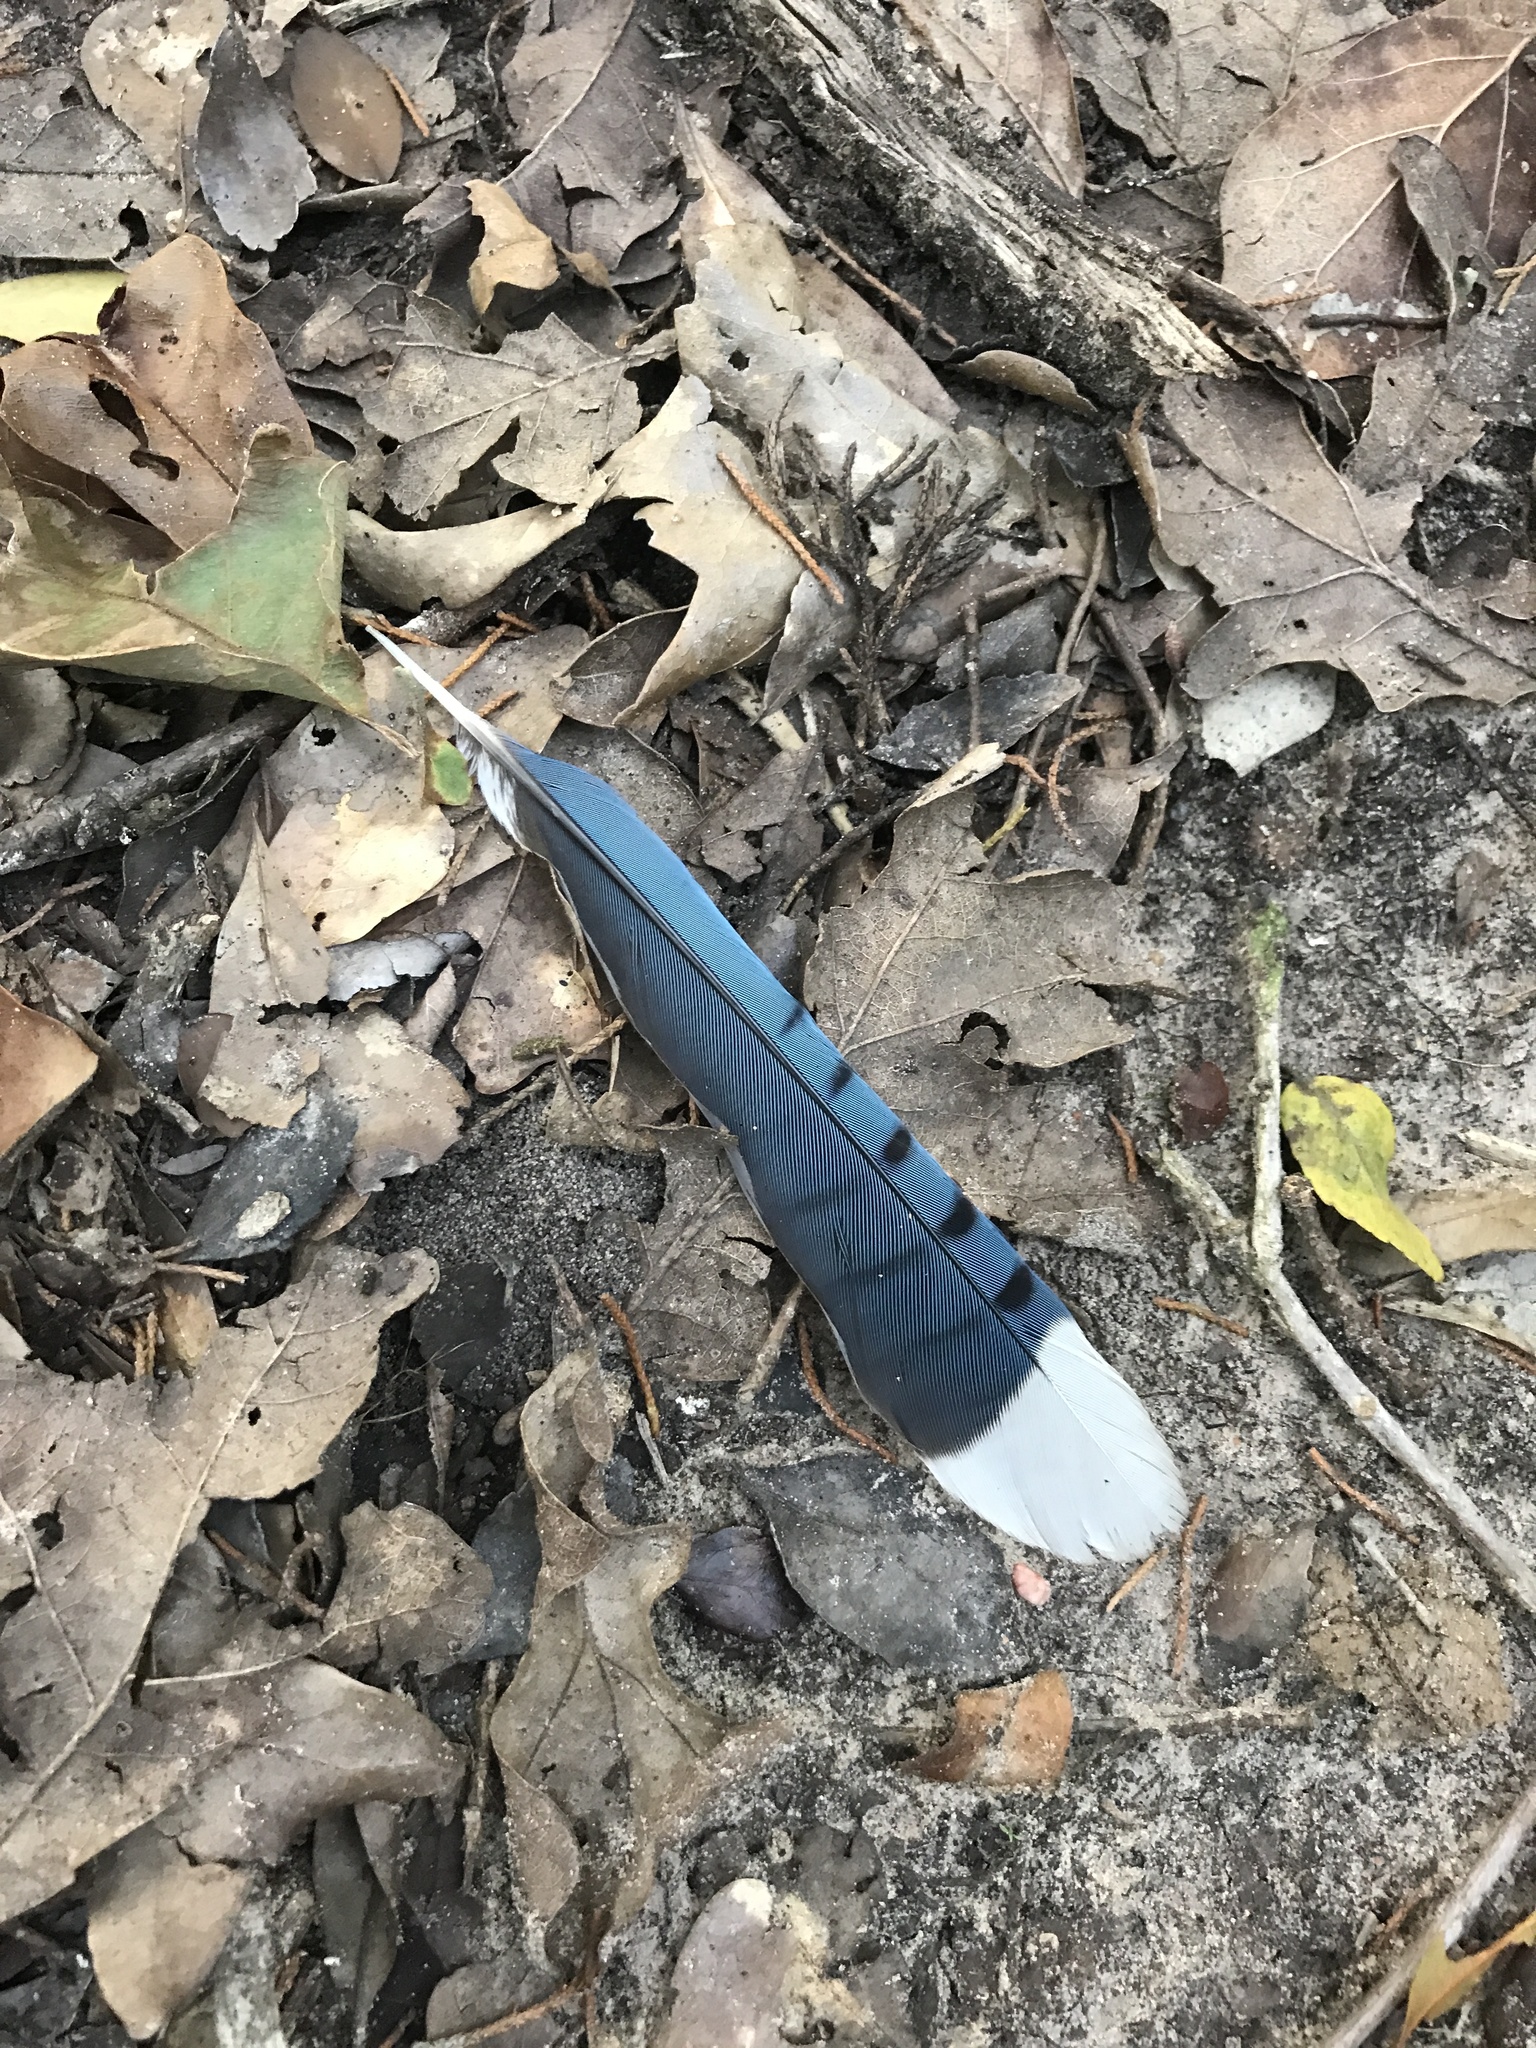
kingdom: Animalia
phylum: Chordata
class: Aves
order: Passeriformes
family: Corvidae
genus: Cyanocitta
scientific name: Cyanocitta cristata
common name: Blue jay
